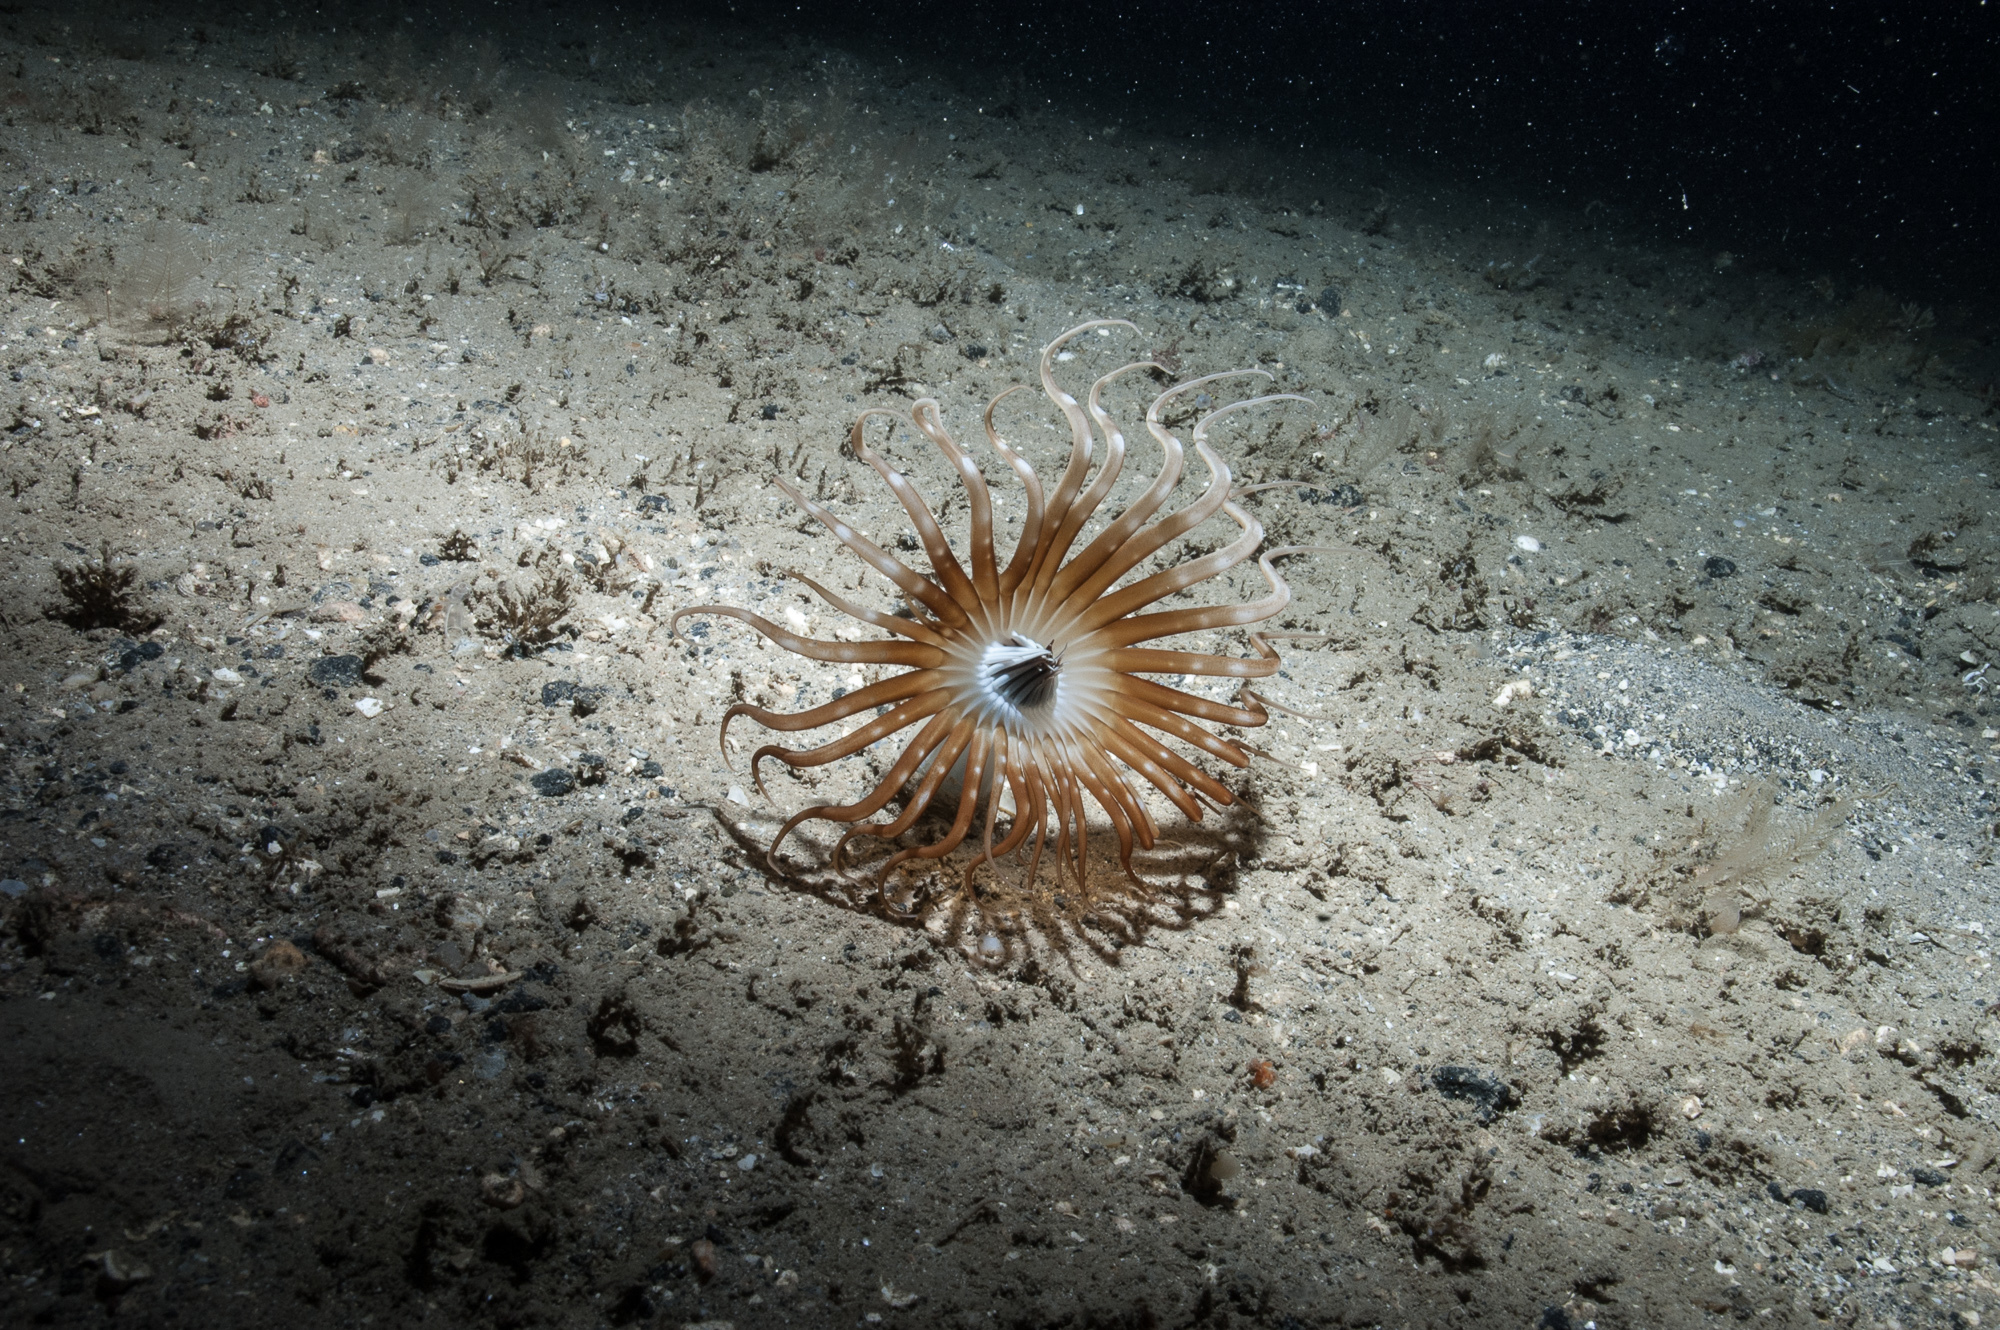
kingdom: Animalia
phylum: Cnidaria
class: Anthozoa
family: Arachnactidae
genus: Arachnanthus
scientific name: Arachnanthus sarsi
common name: Scarce tube-dwelling anemone
